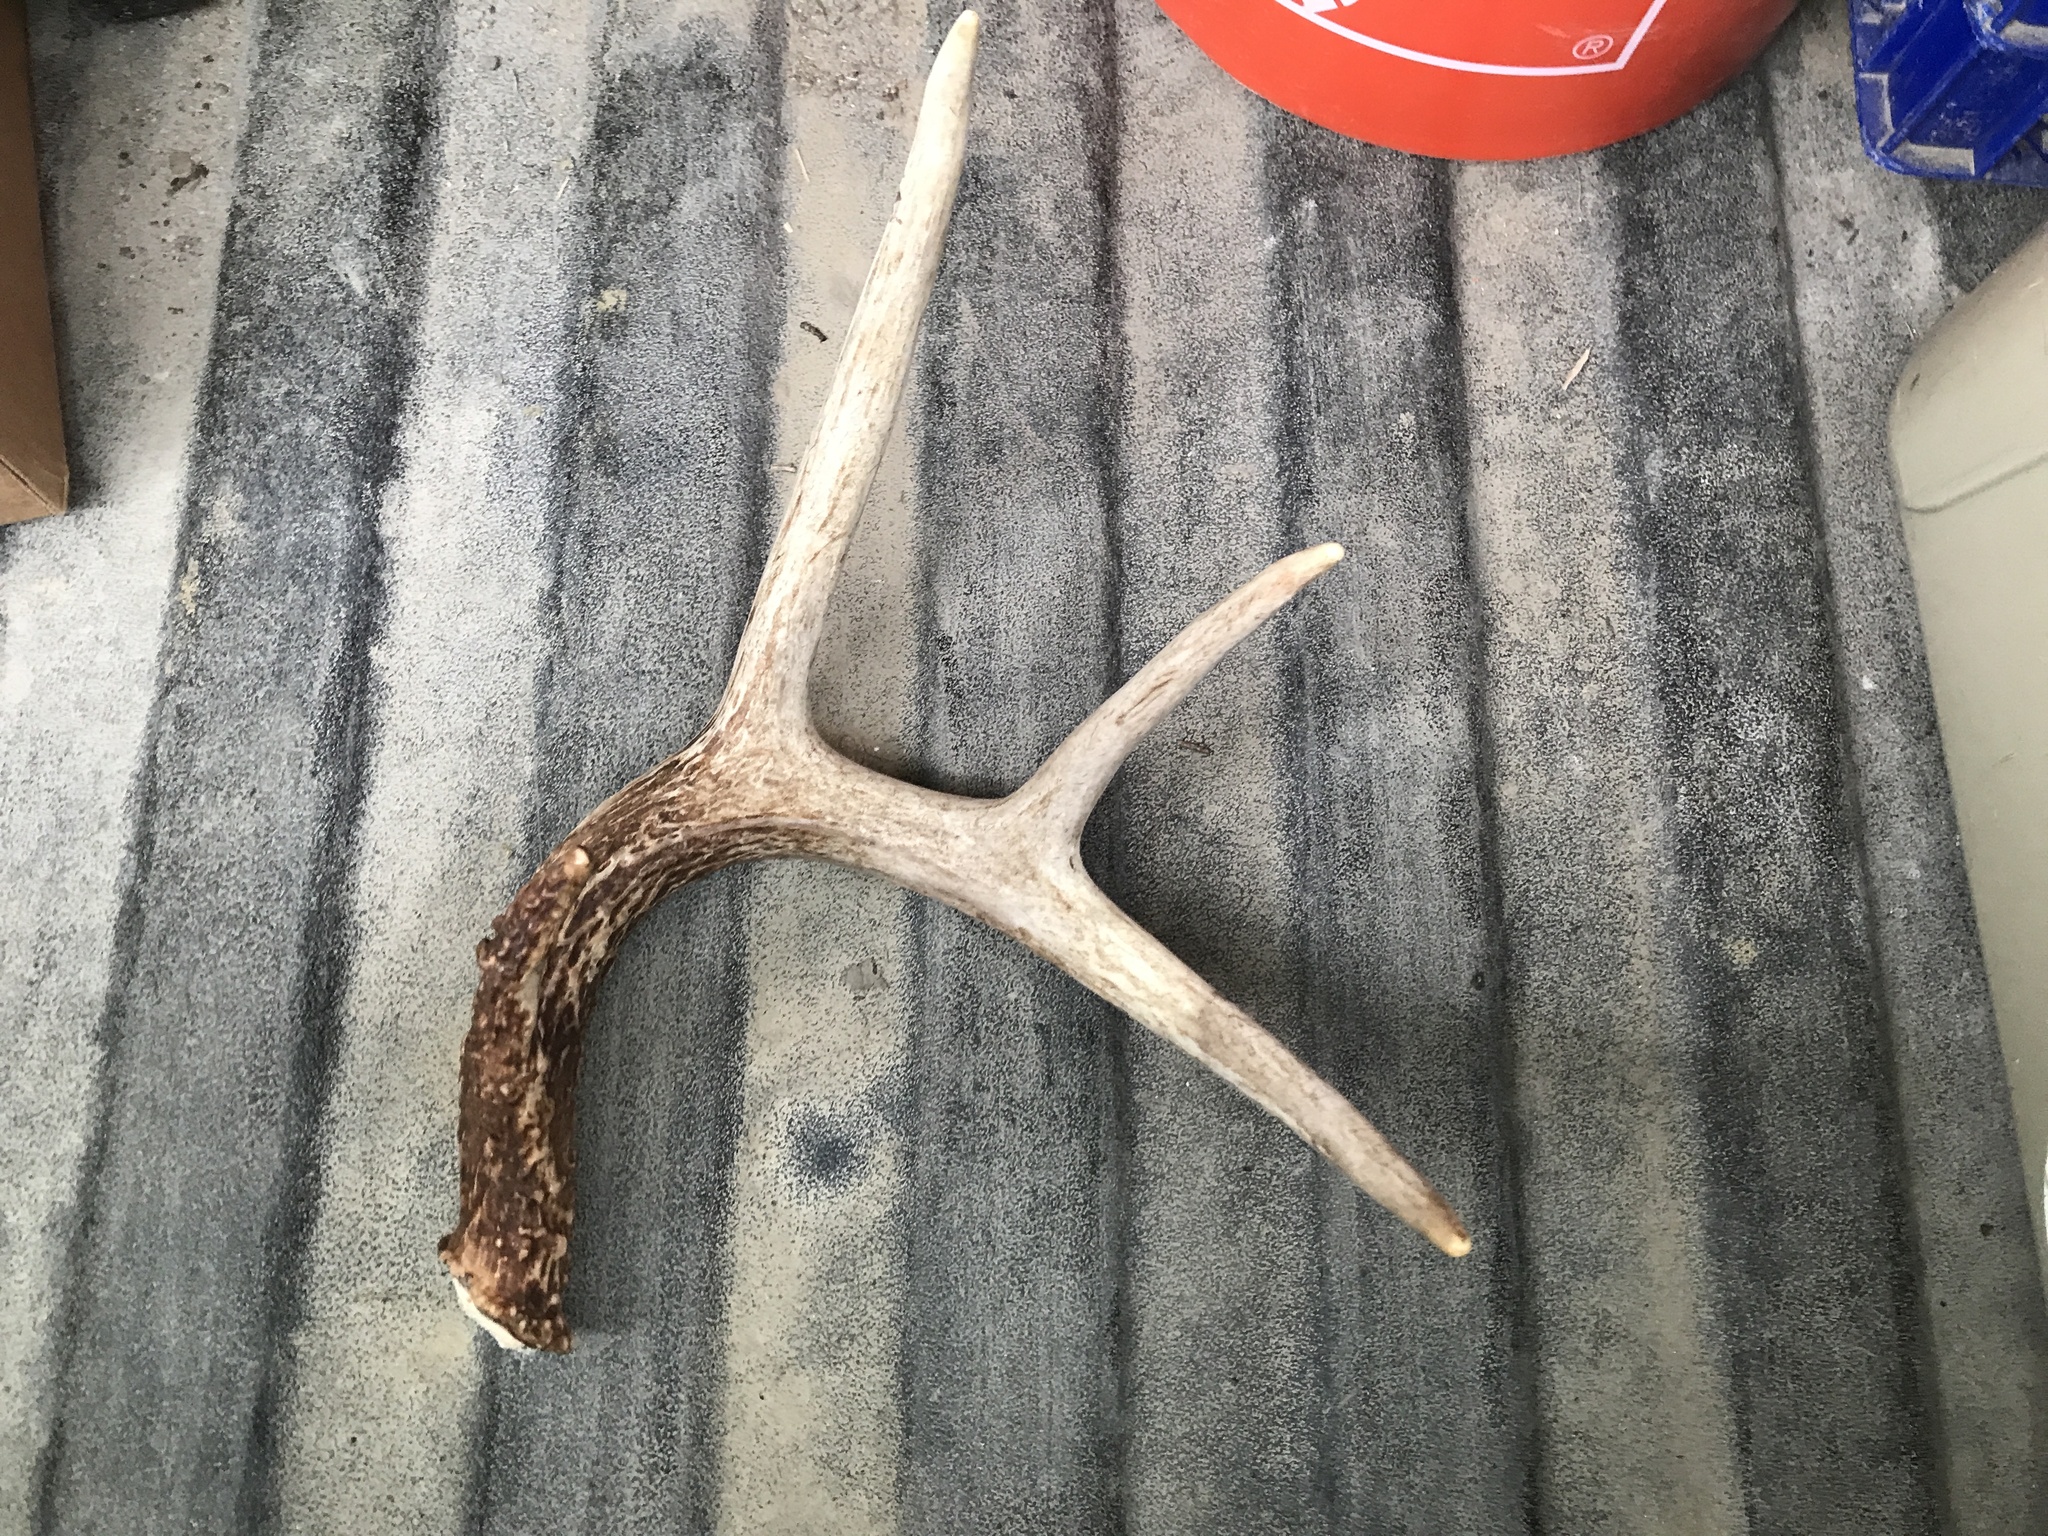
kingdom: Animalia
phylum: Chordata
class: Mammalia
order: Artiodactyla
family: Cervidae
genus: Odocoileus
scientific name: Odocoileus virginianus
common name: White-tailed deer
